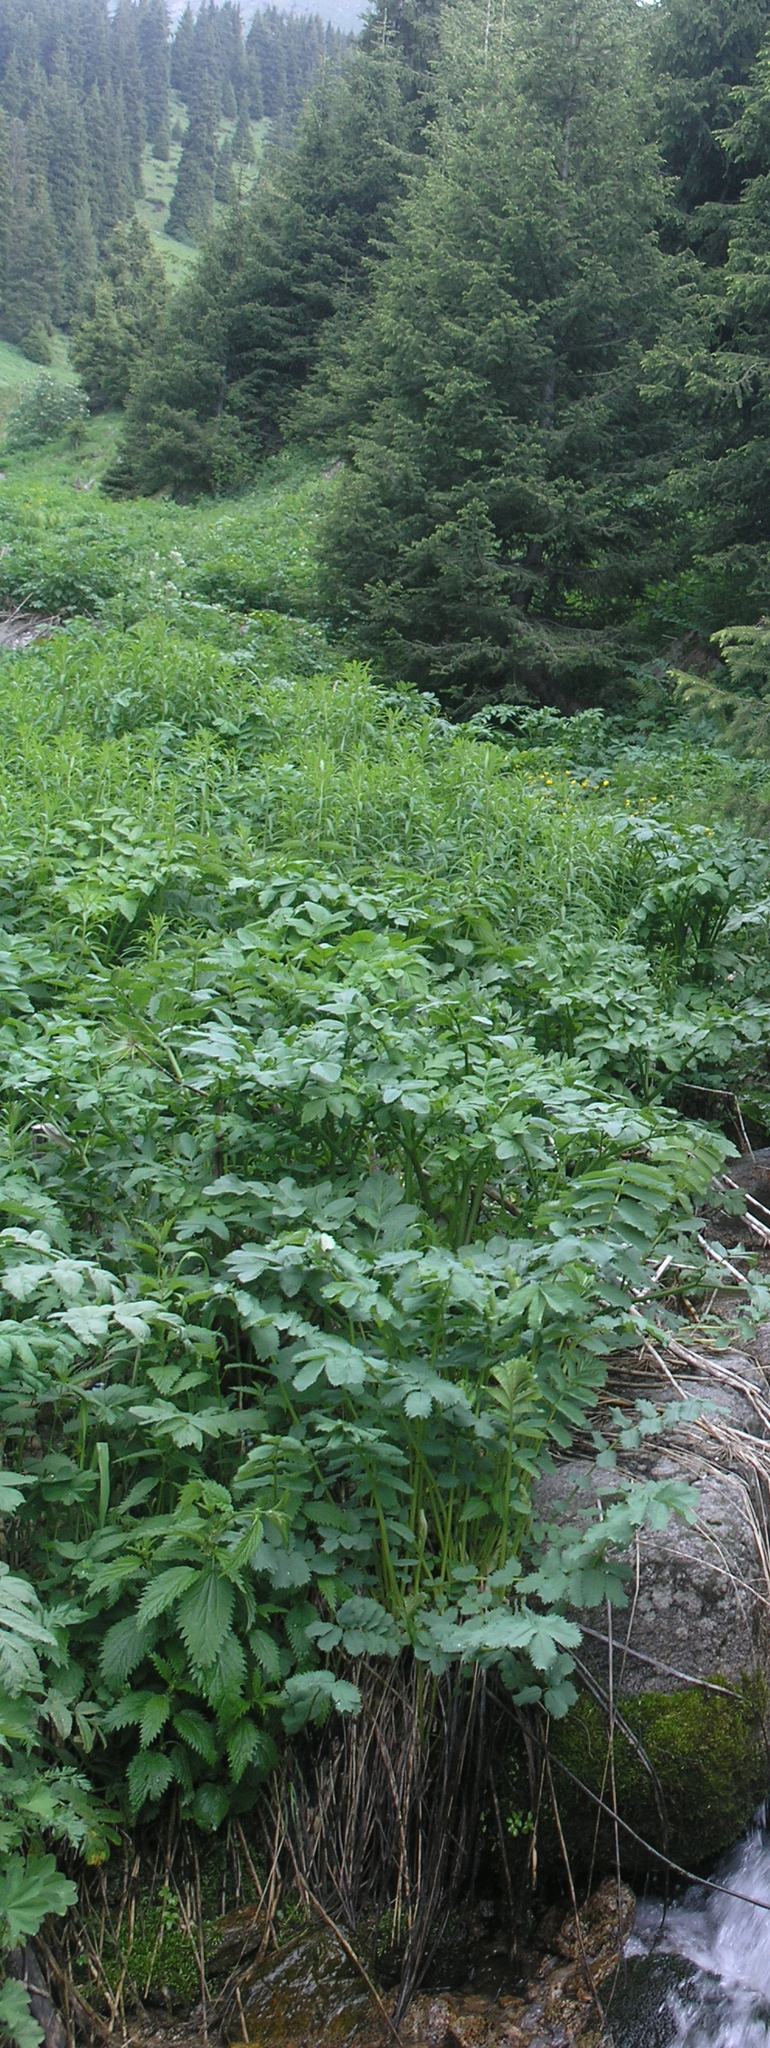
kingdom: Plantae
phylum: Tracheophyta
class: Magnoliopsida
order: Rosales
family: Rosaceae
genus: Sanguisorba
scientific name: Sanguisorba alpina
